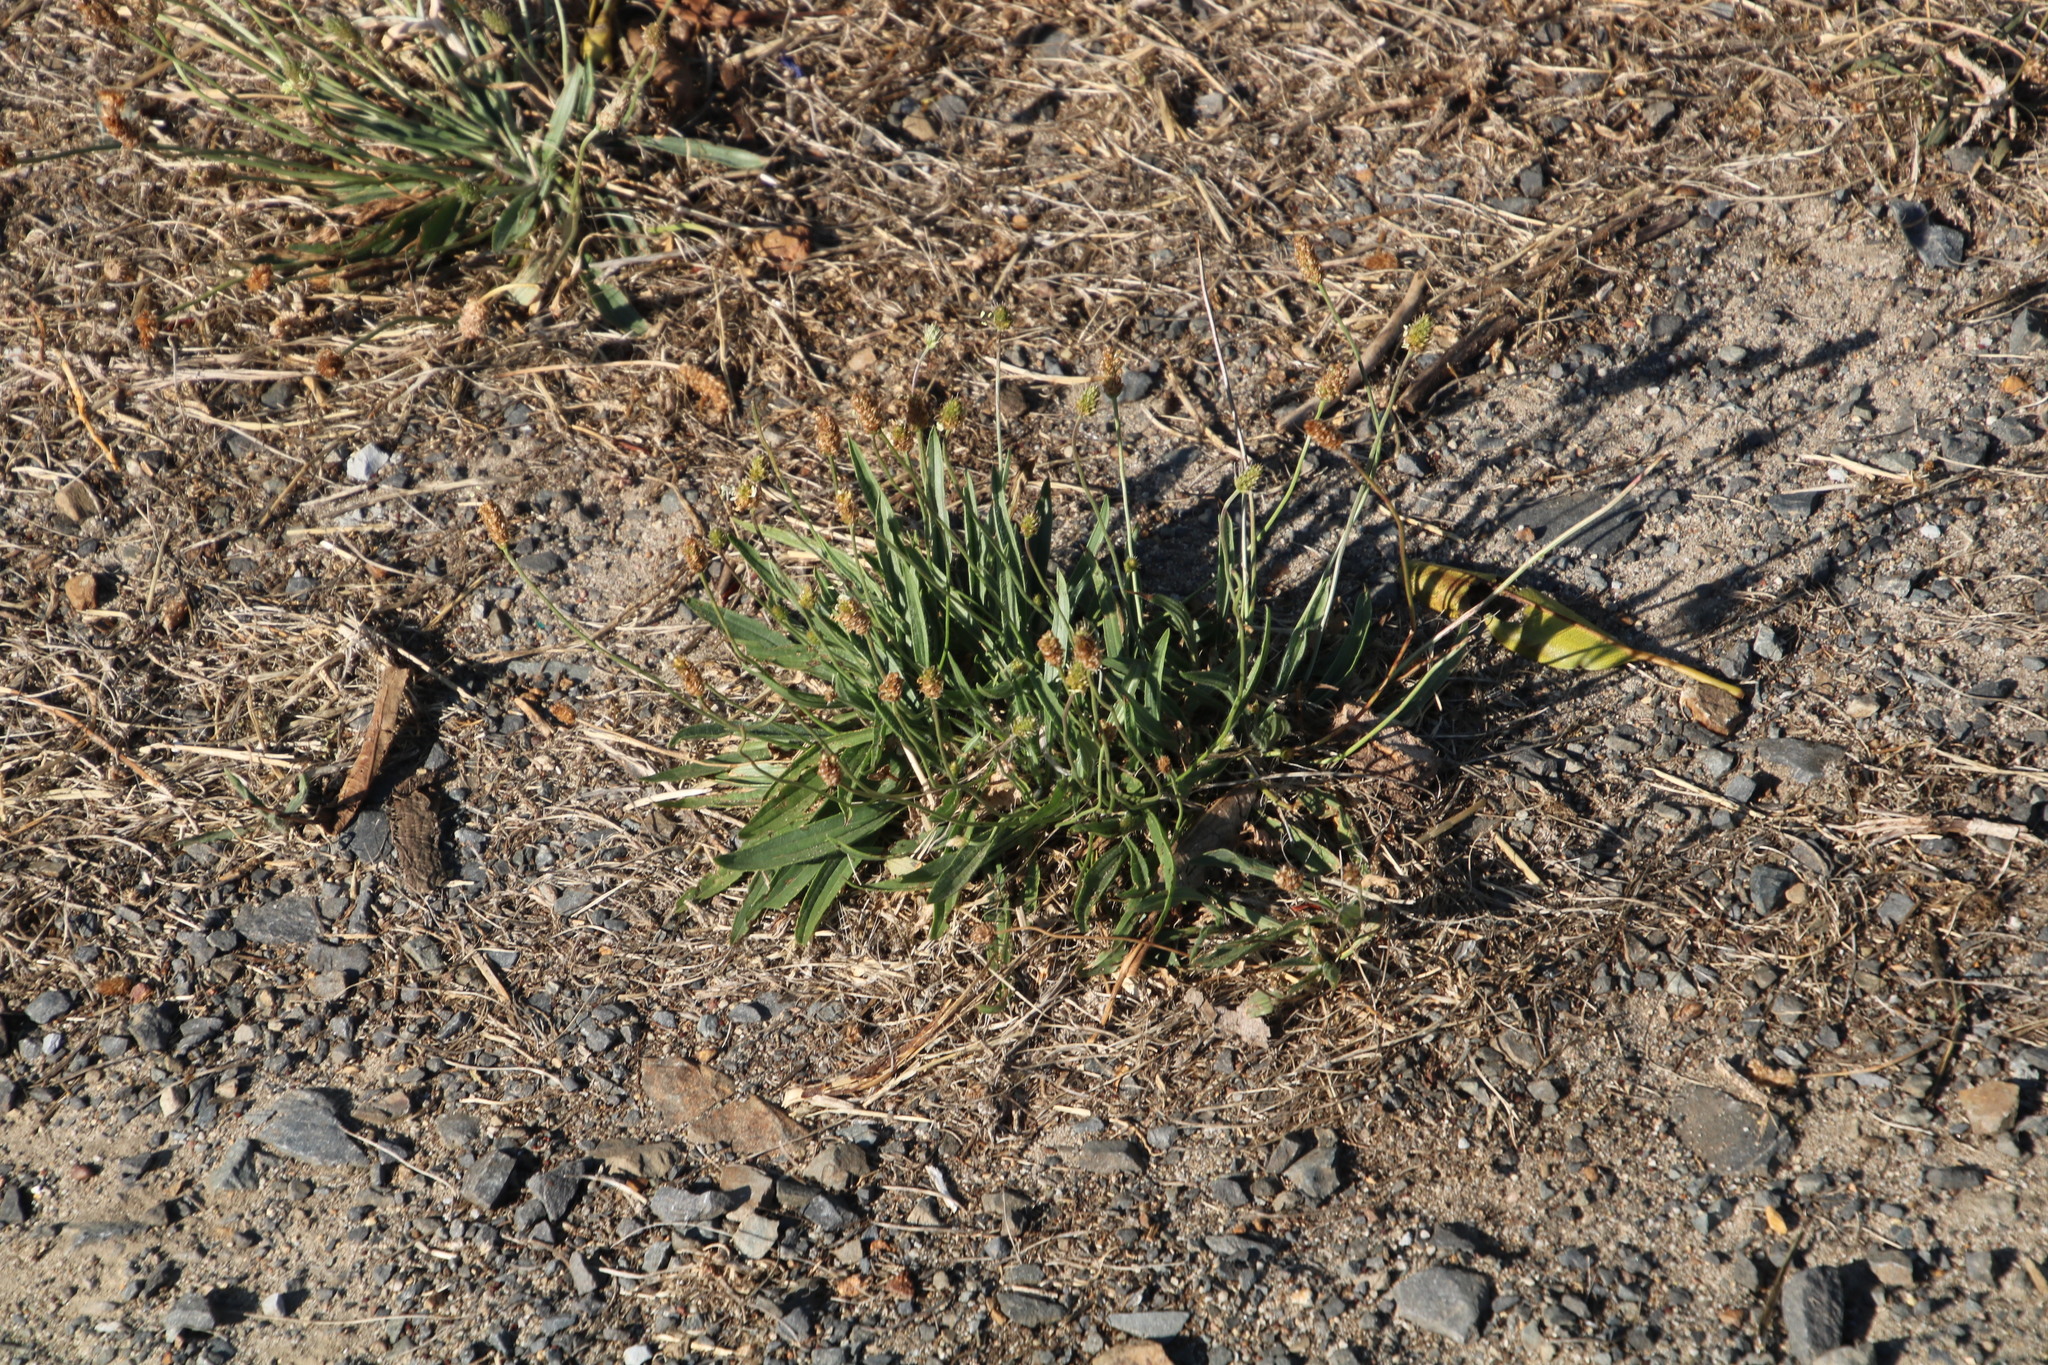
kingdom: Plantae
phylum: Tracheophyta
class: Magnoliopsida
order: Lamiales
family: Plantaginaceae
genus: Plantago
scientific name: Plantago lanceolata
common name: Ribwort plantain
